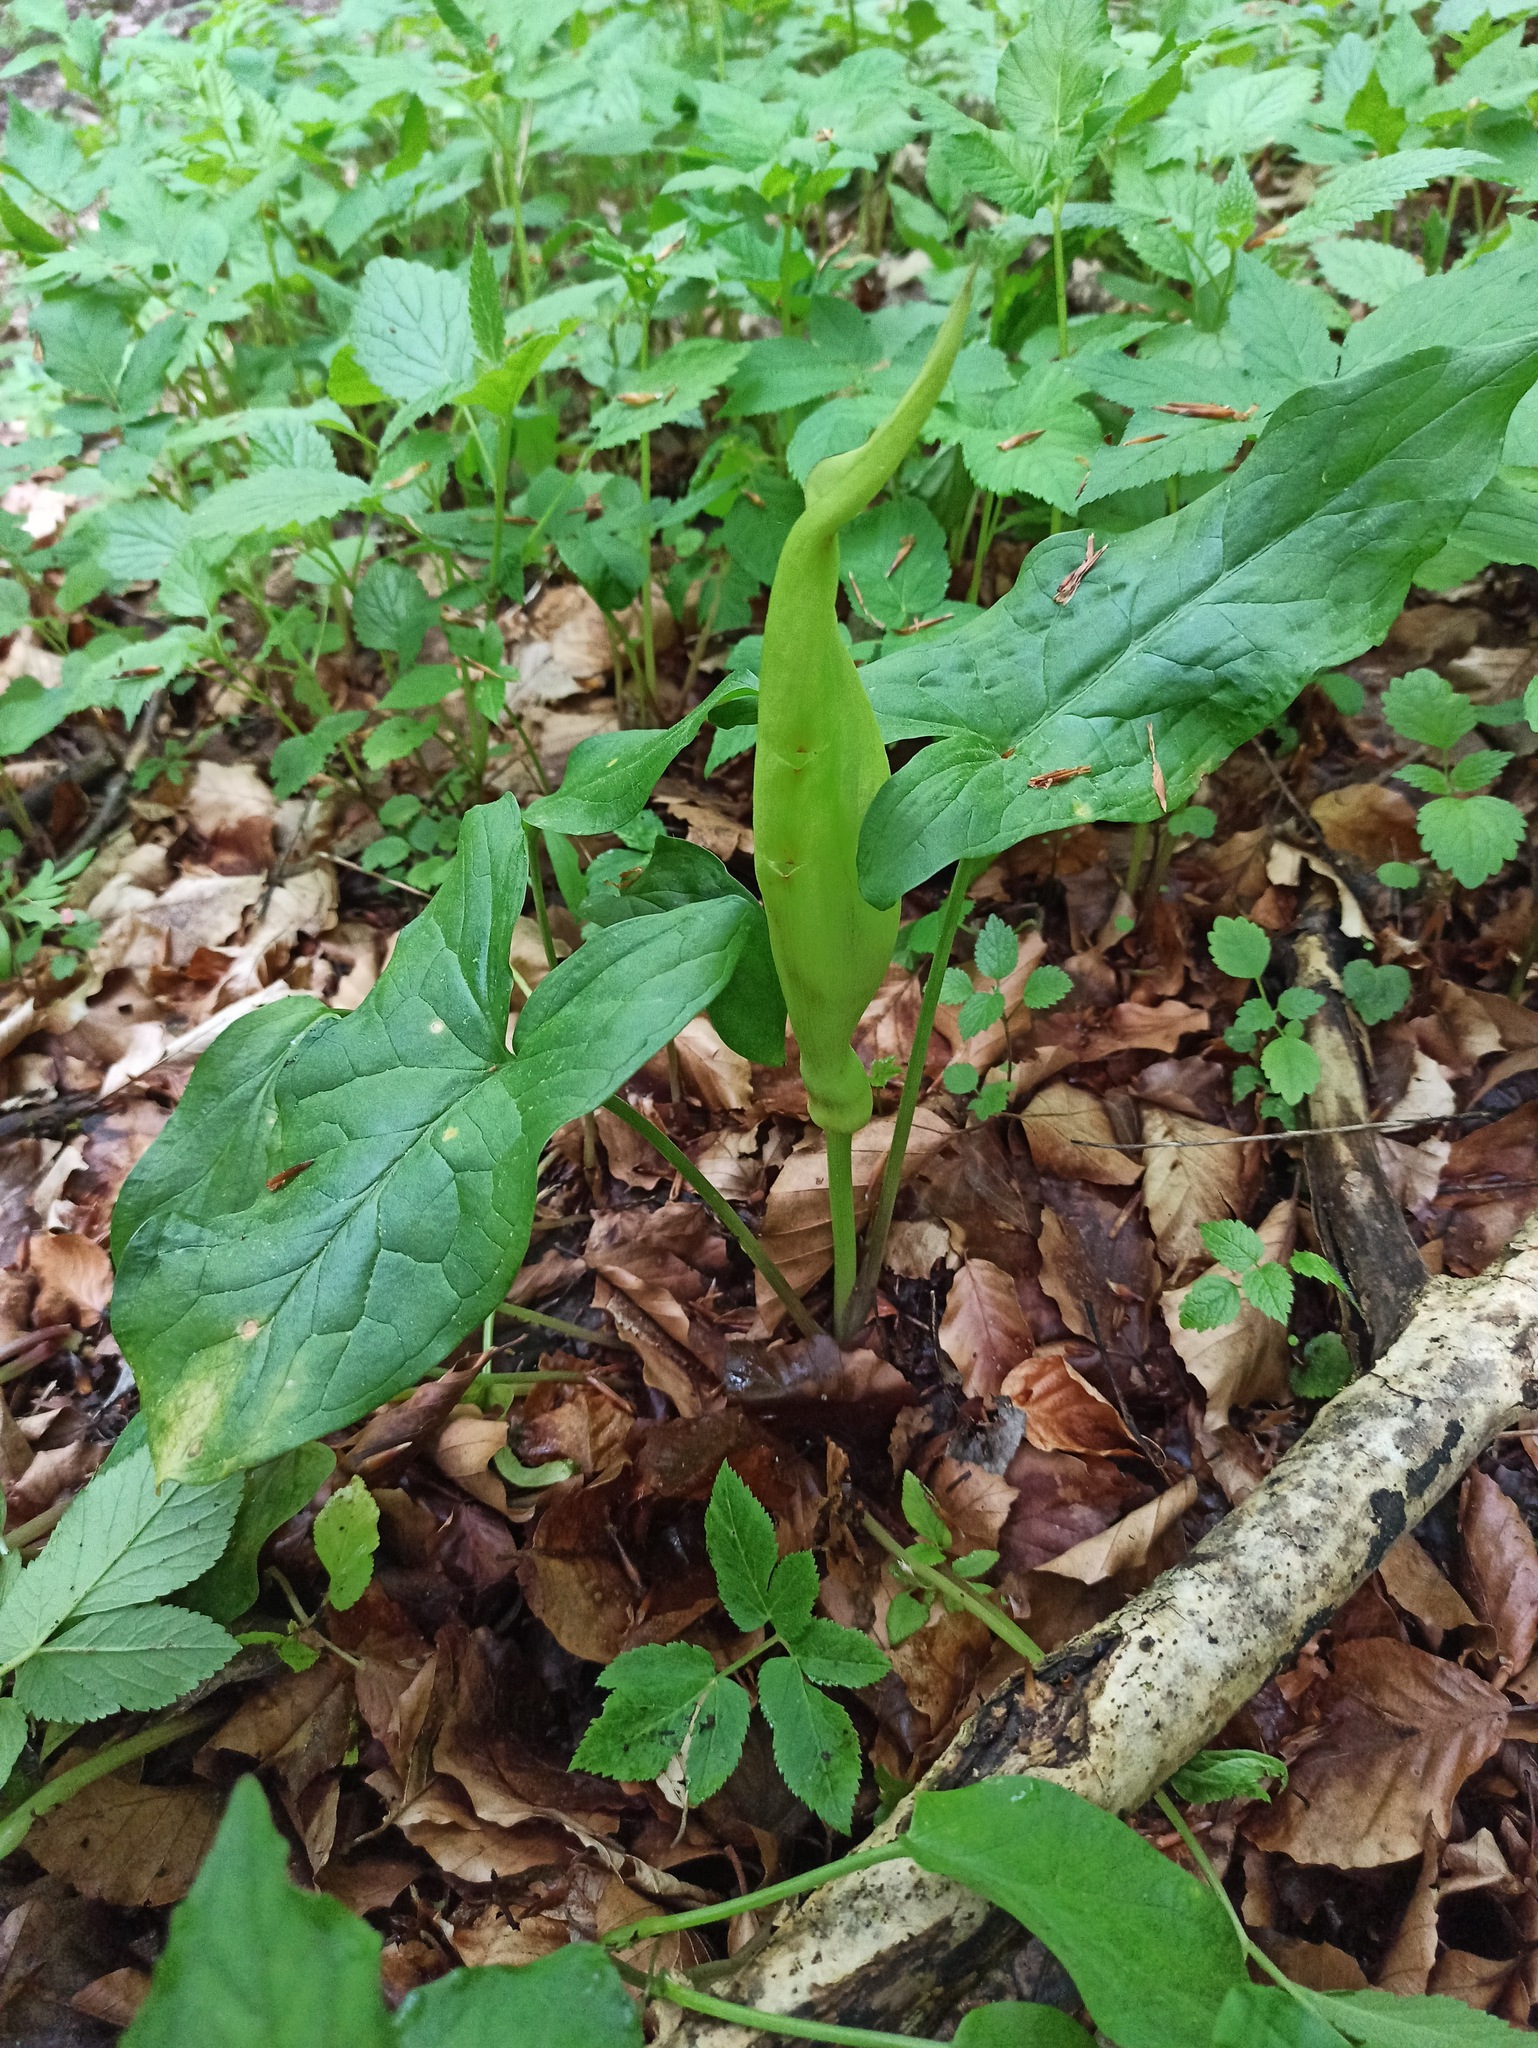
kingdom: Plantae
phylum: Tracheophyta
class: Liliopsida
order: Alismatales
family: Araceae
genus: Arum
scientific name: Arum maculatum
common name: Lords-and-ladies
